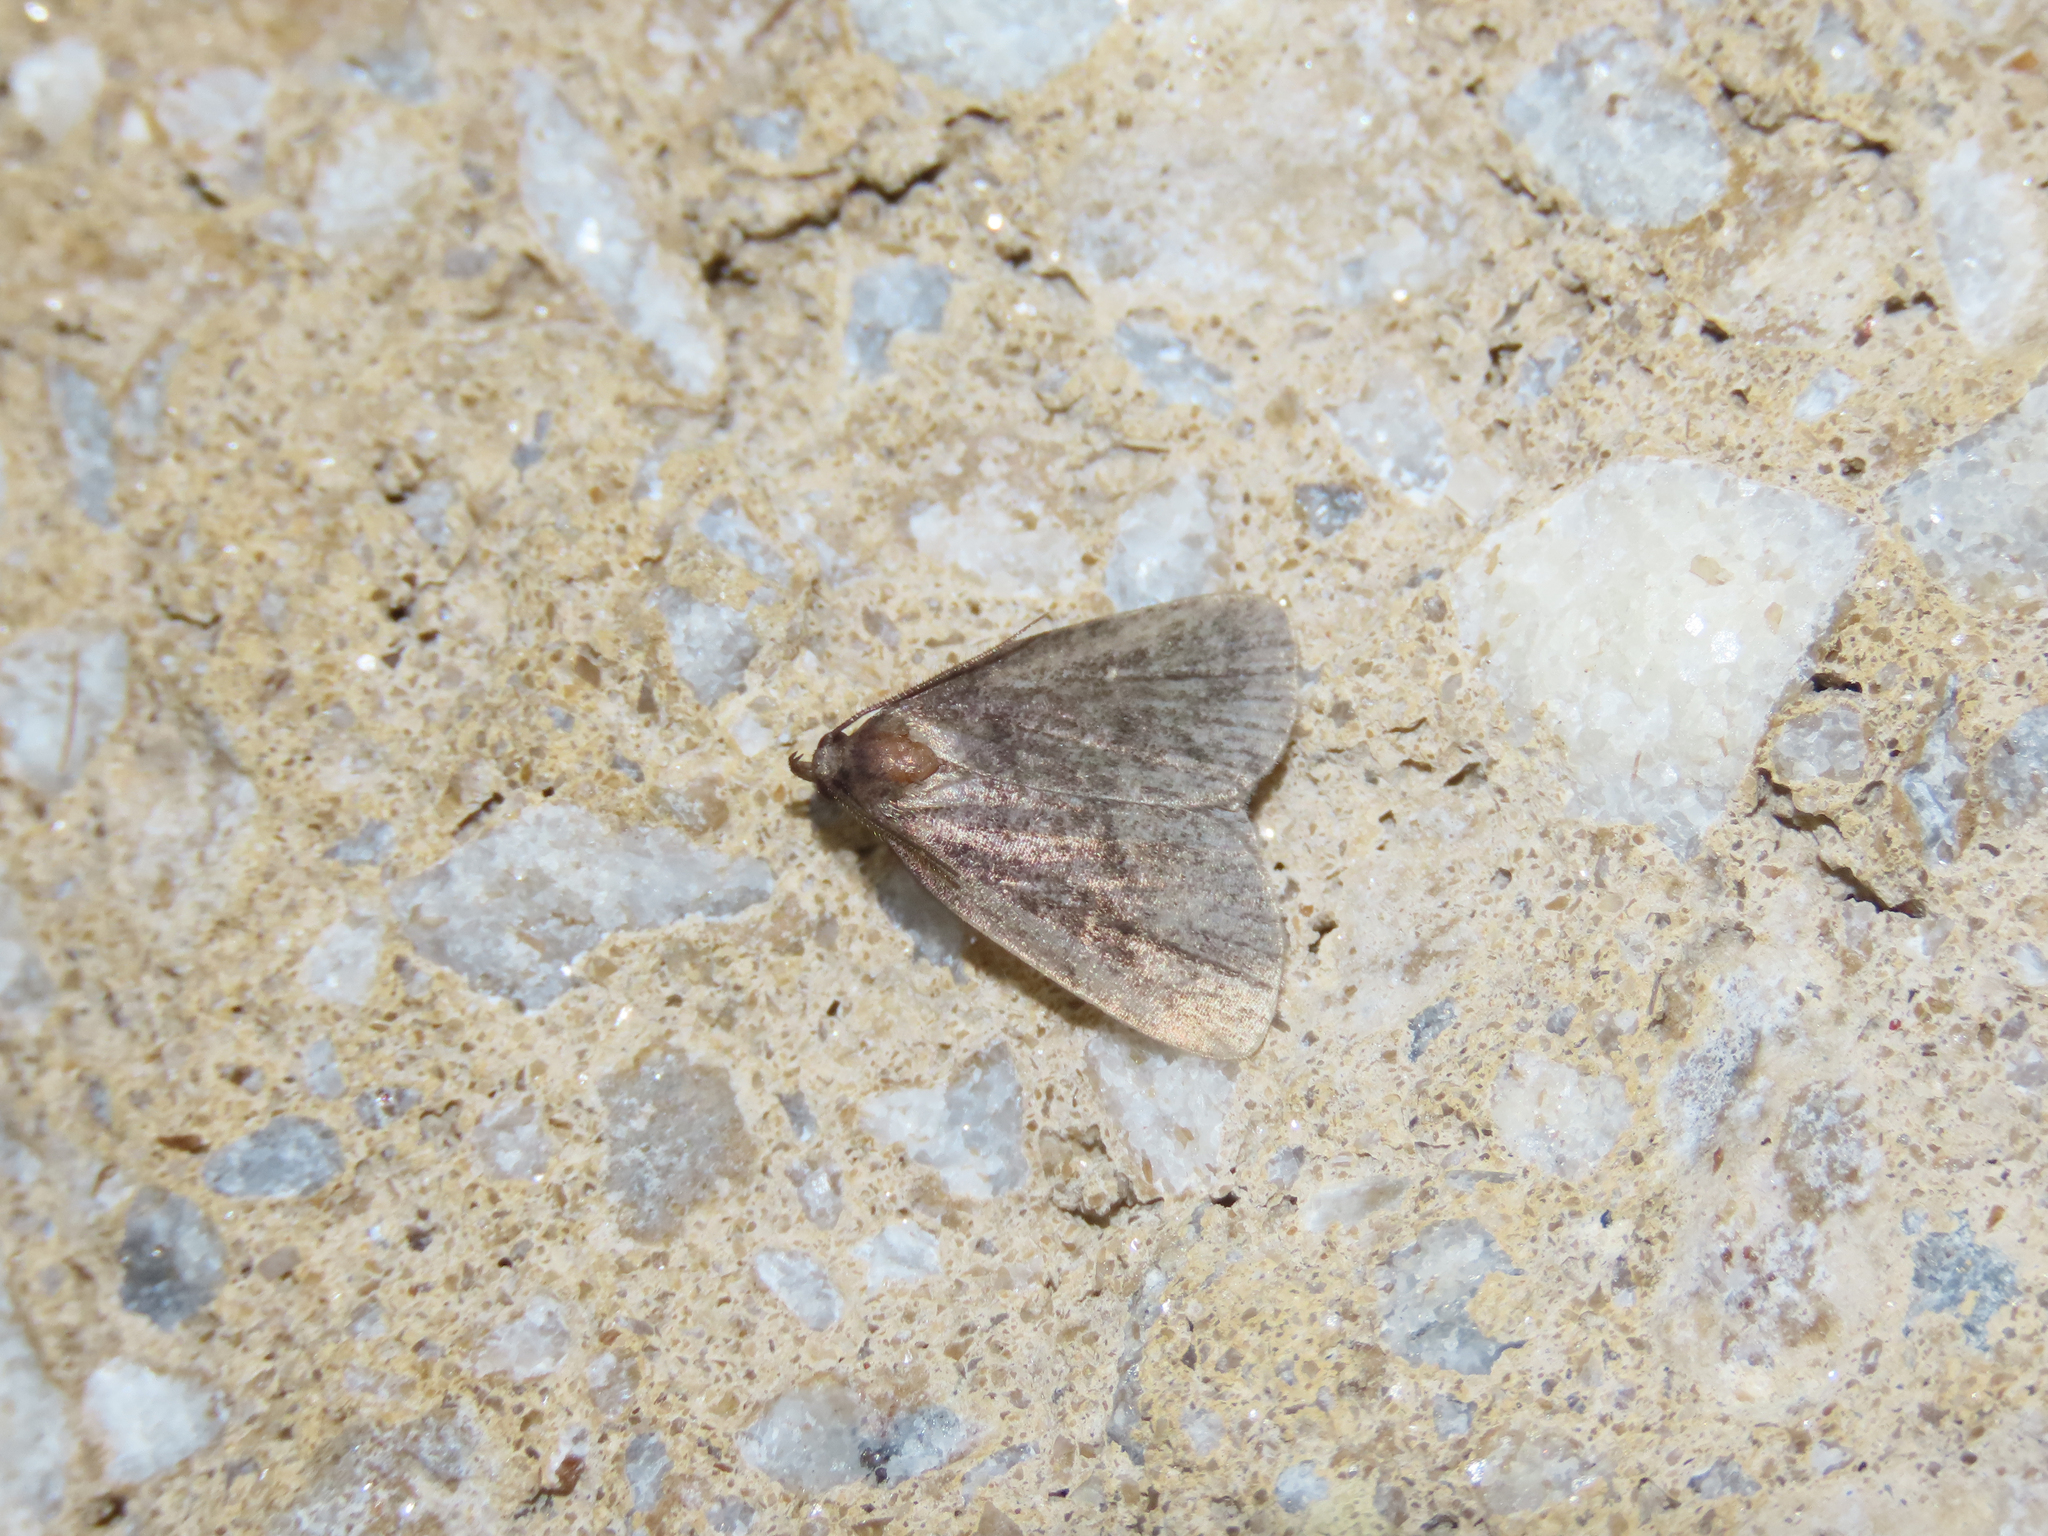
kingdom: Animalia
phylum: Arthropoda
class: Insecta
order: Lepidoptera
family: Erebidae
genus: Idia
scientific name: Idia rotundalis
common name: Rotund idia moth
